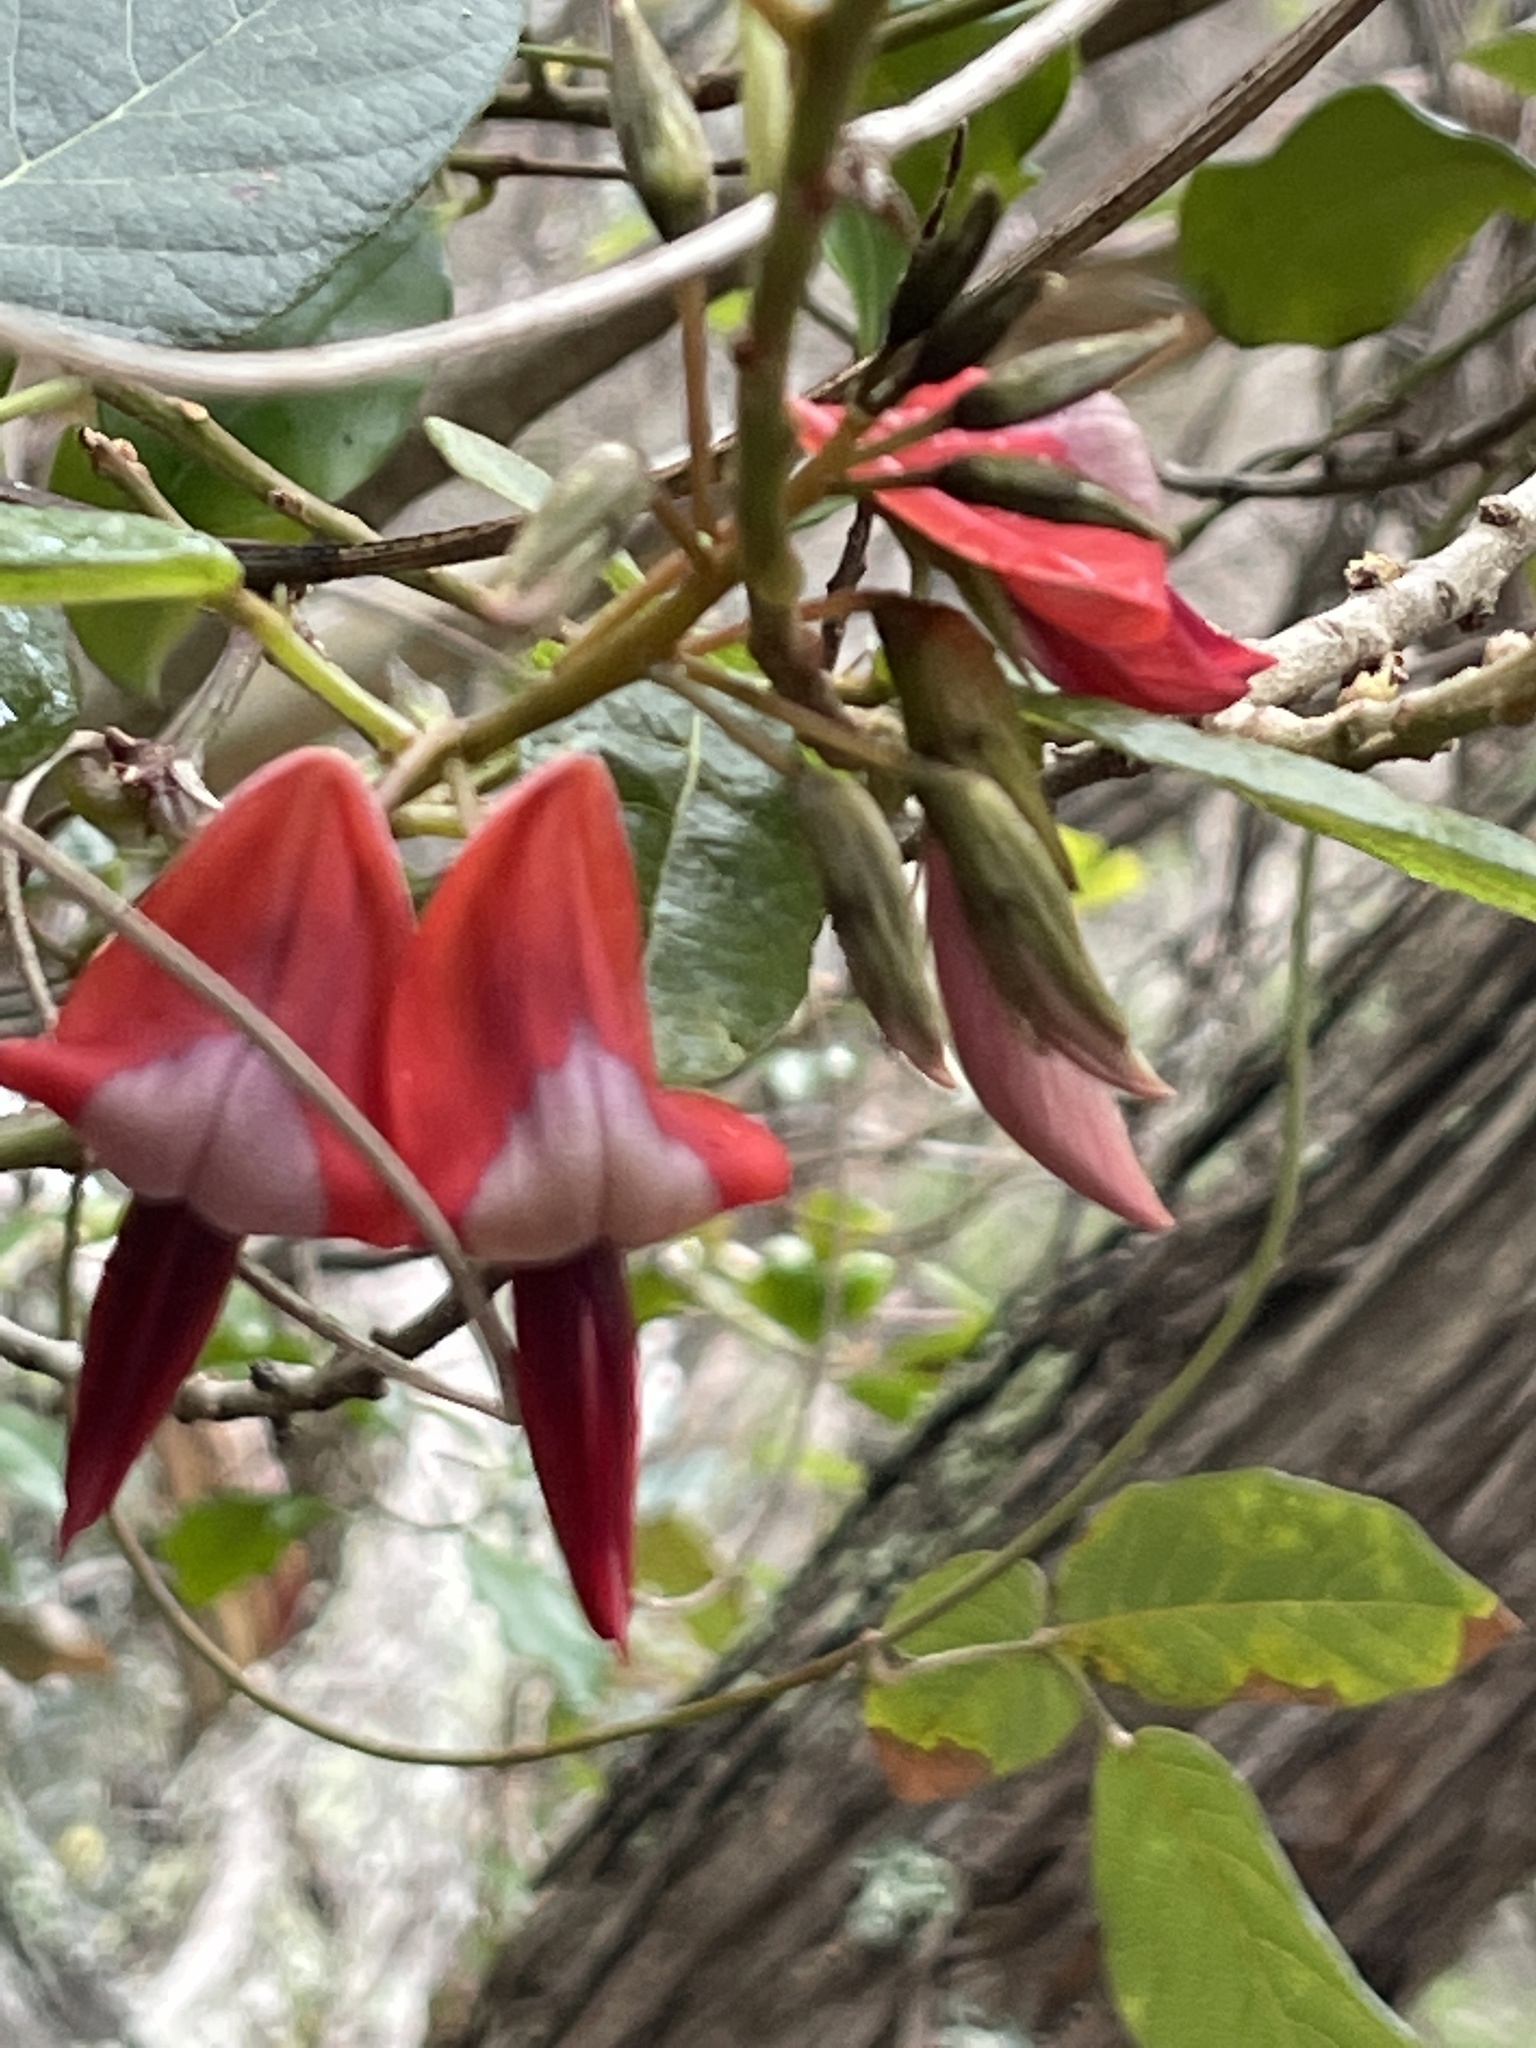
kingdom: Plantae
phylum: Tracheophyta
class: Magnoliopsida
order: Fabales
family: Fabaceae
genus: Kennedia
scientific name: Kennedia rubicunda
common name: Red kennedy-pea
